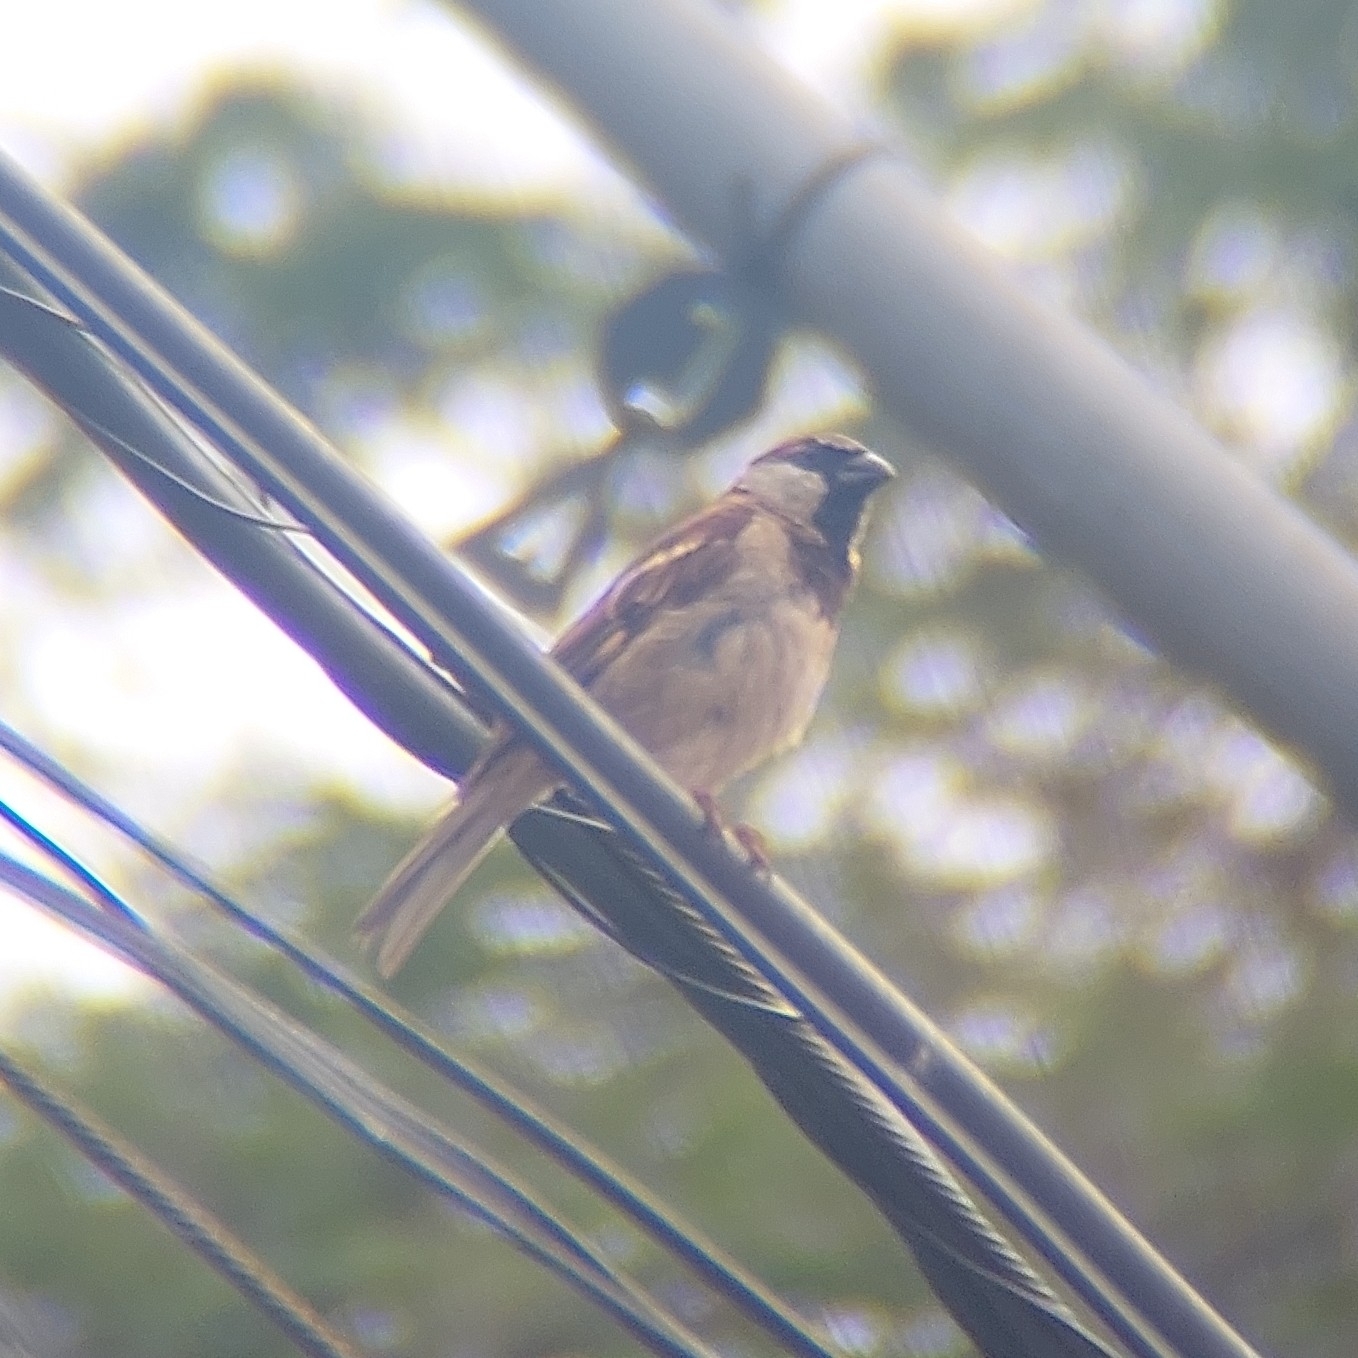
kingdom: Animalia
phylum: Chordata
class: Aves
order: Passeriformes
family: Passeridae
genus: Passer
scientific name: Passer domesticus
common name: House sparrow
